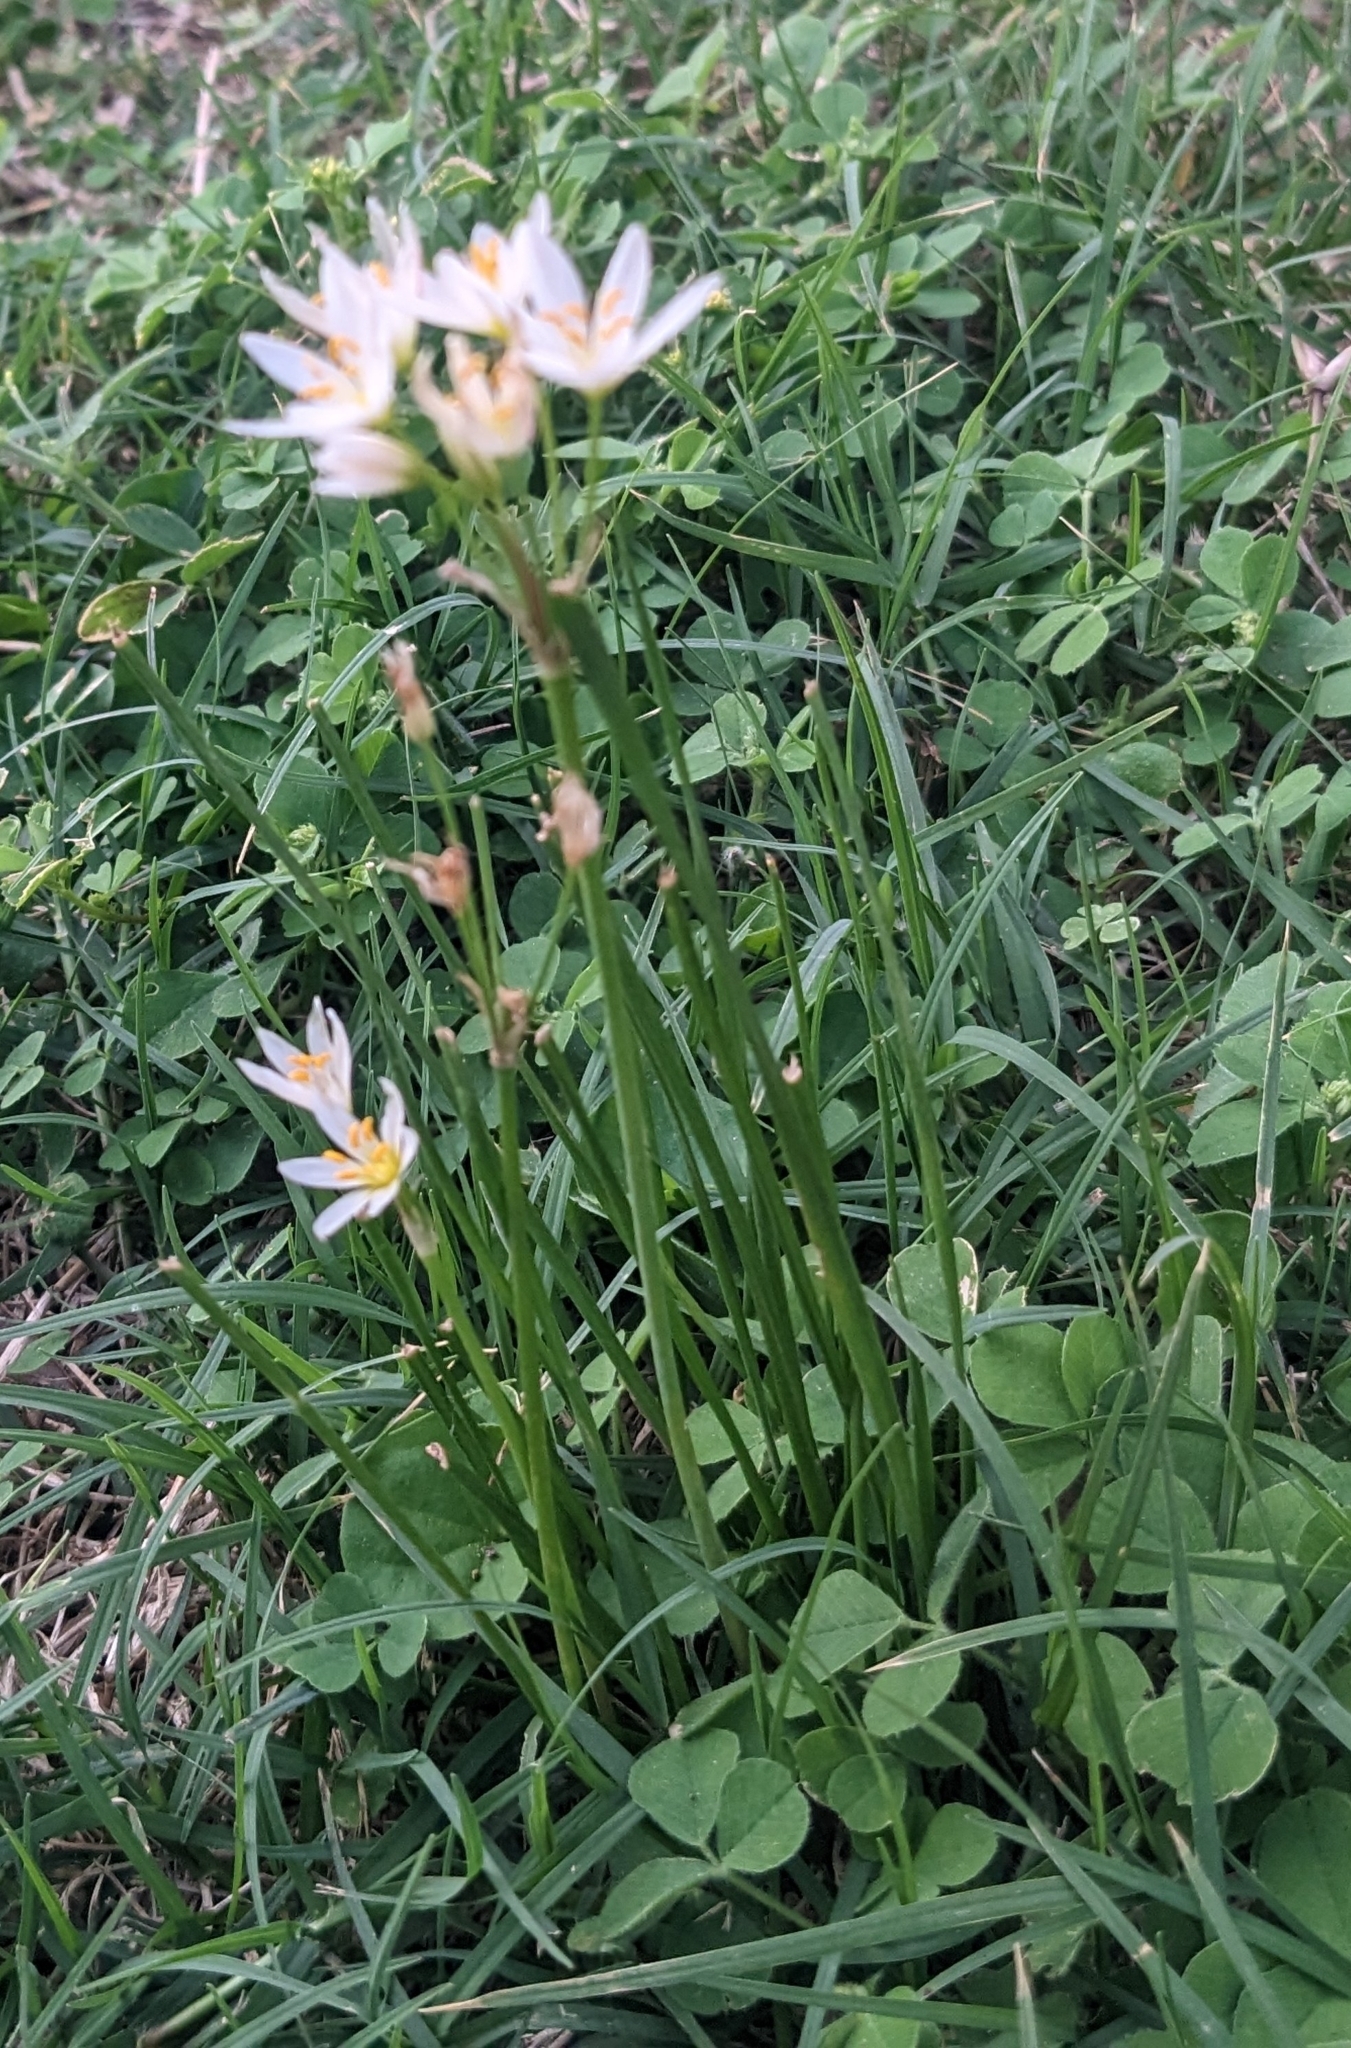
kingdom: Plantae
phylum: Tracheophyta
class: Liliopsida
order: Asparagales
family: Amaryllidaceae
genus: Nothoscordum
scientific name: Nothoscordum bivalve
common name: Crow-poison
